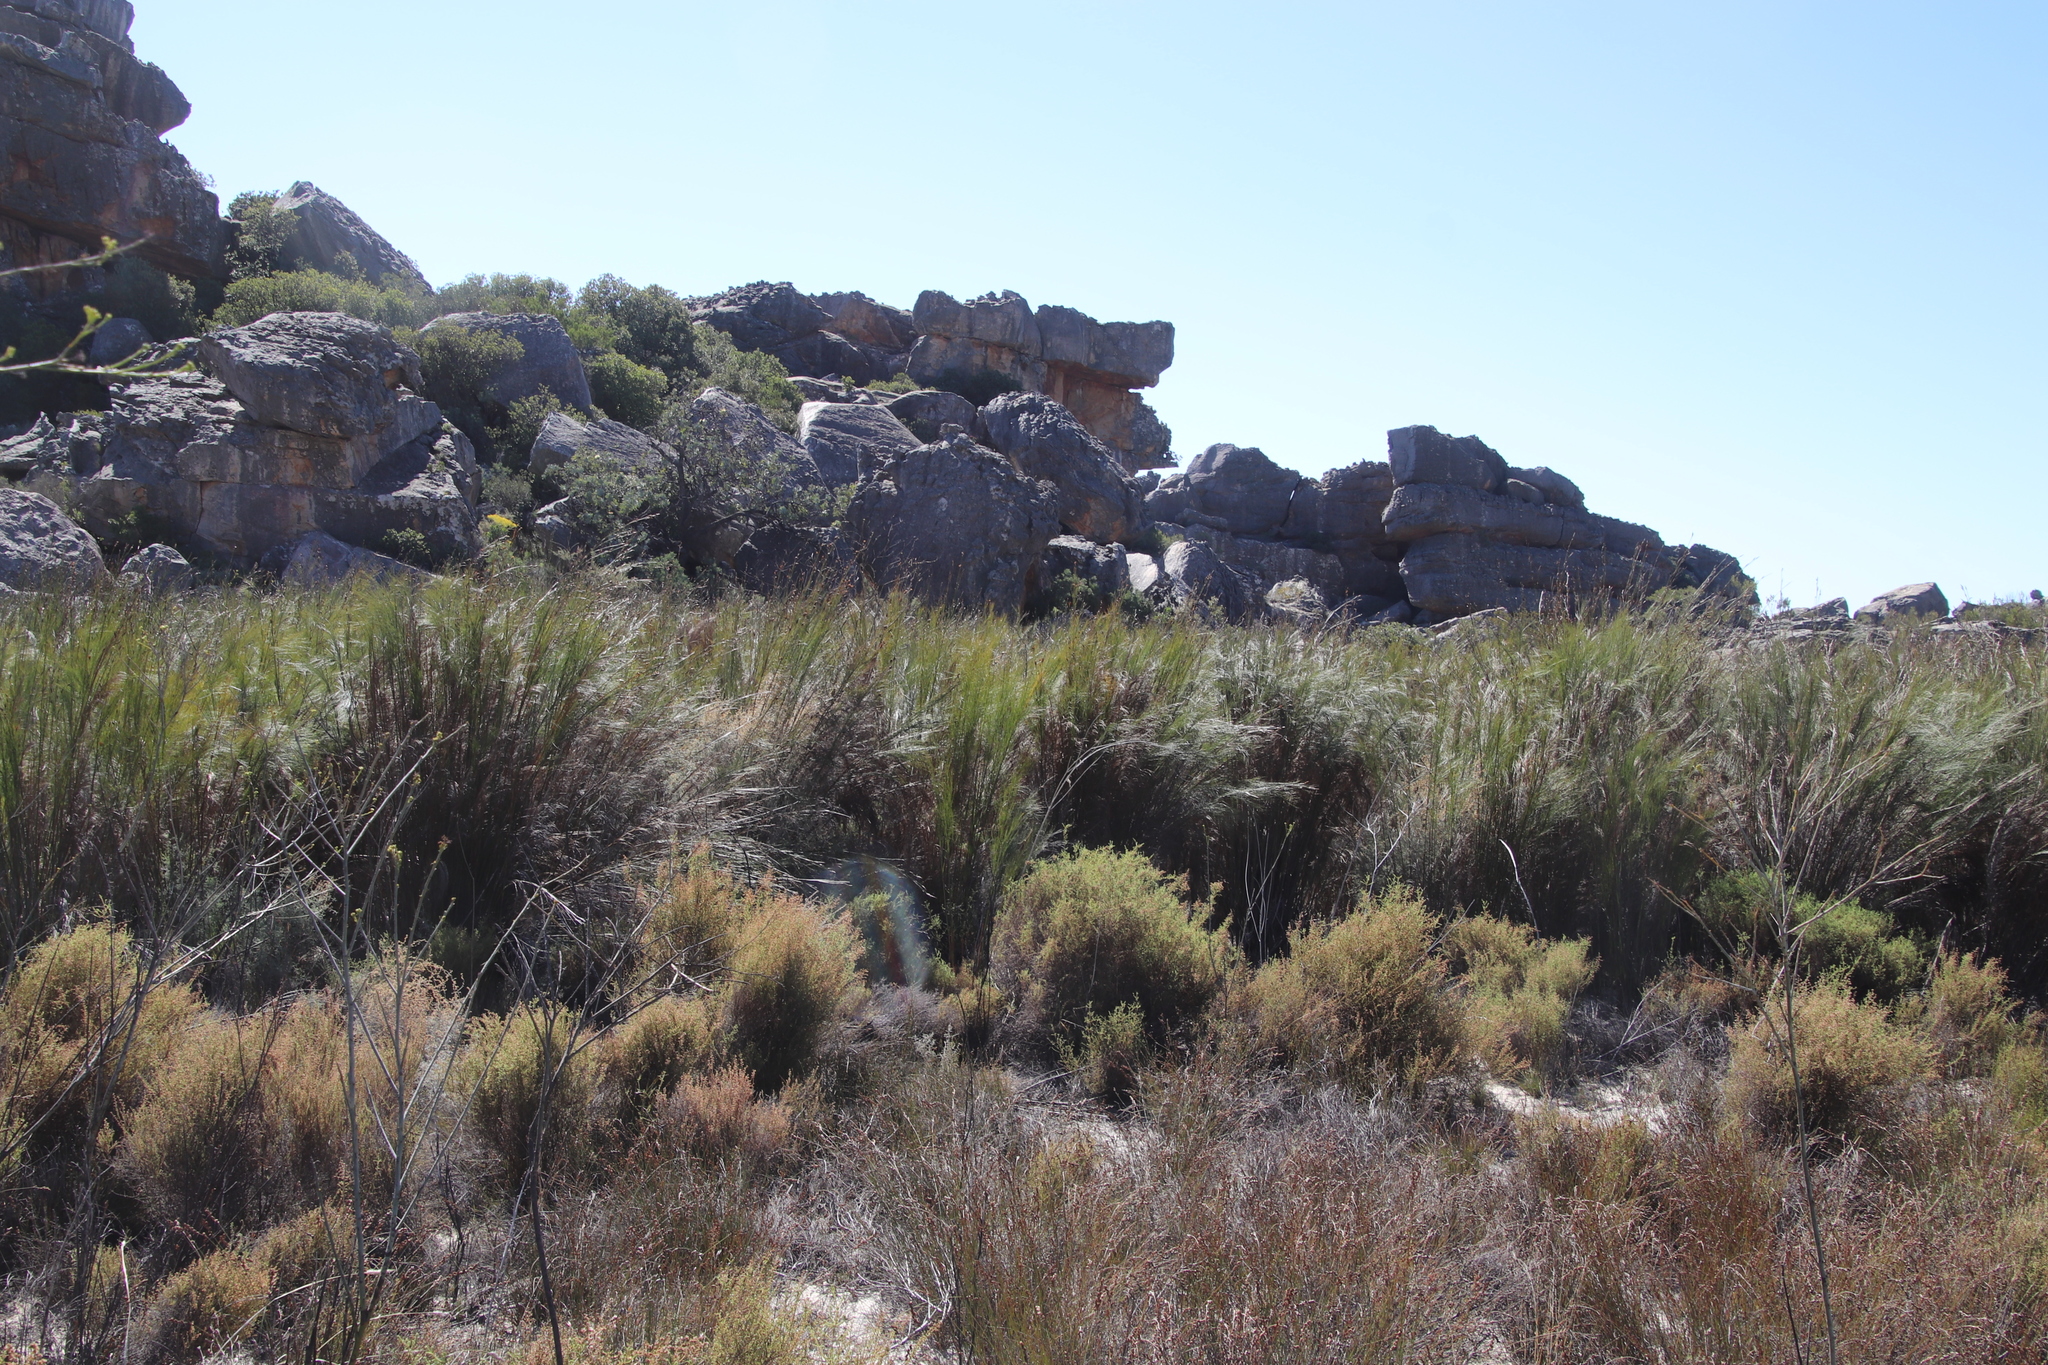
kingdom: Plantae
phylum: Tracheophyta
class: Liliopsida
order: Poales
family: Restionaceae
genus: Cannomois
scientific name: Cannomois robusta
